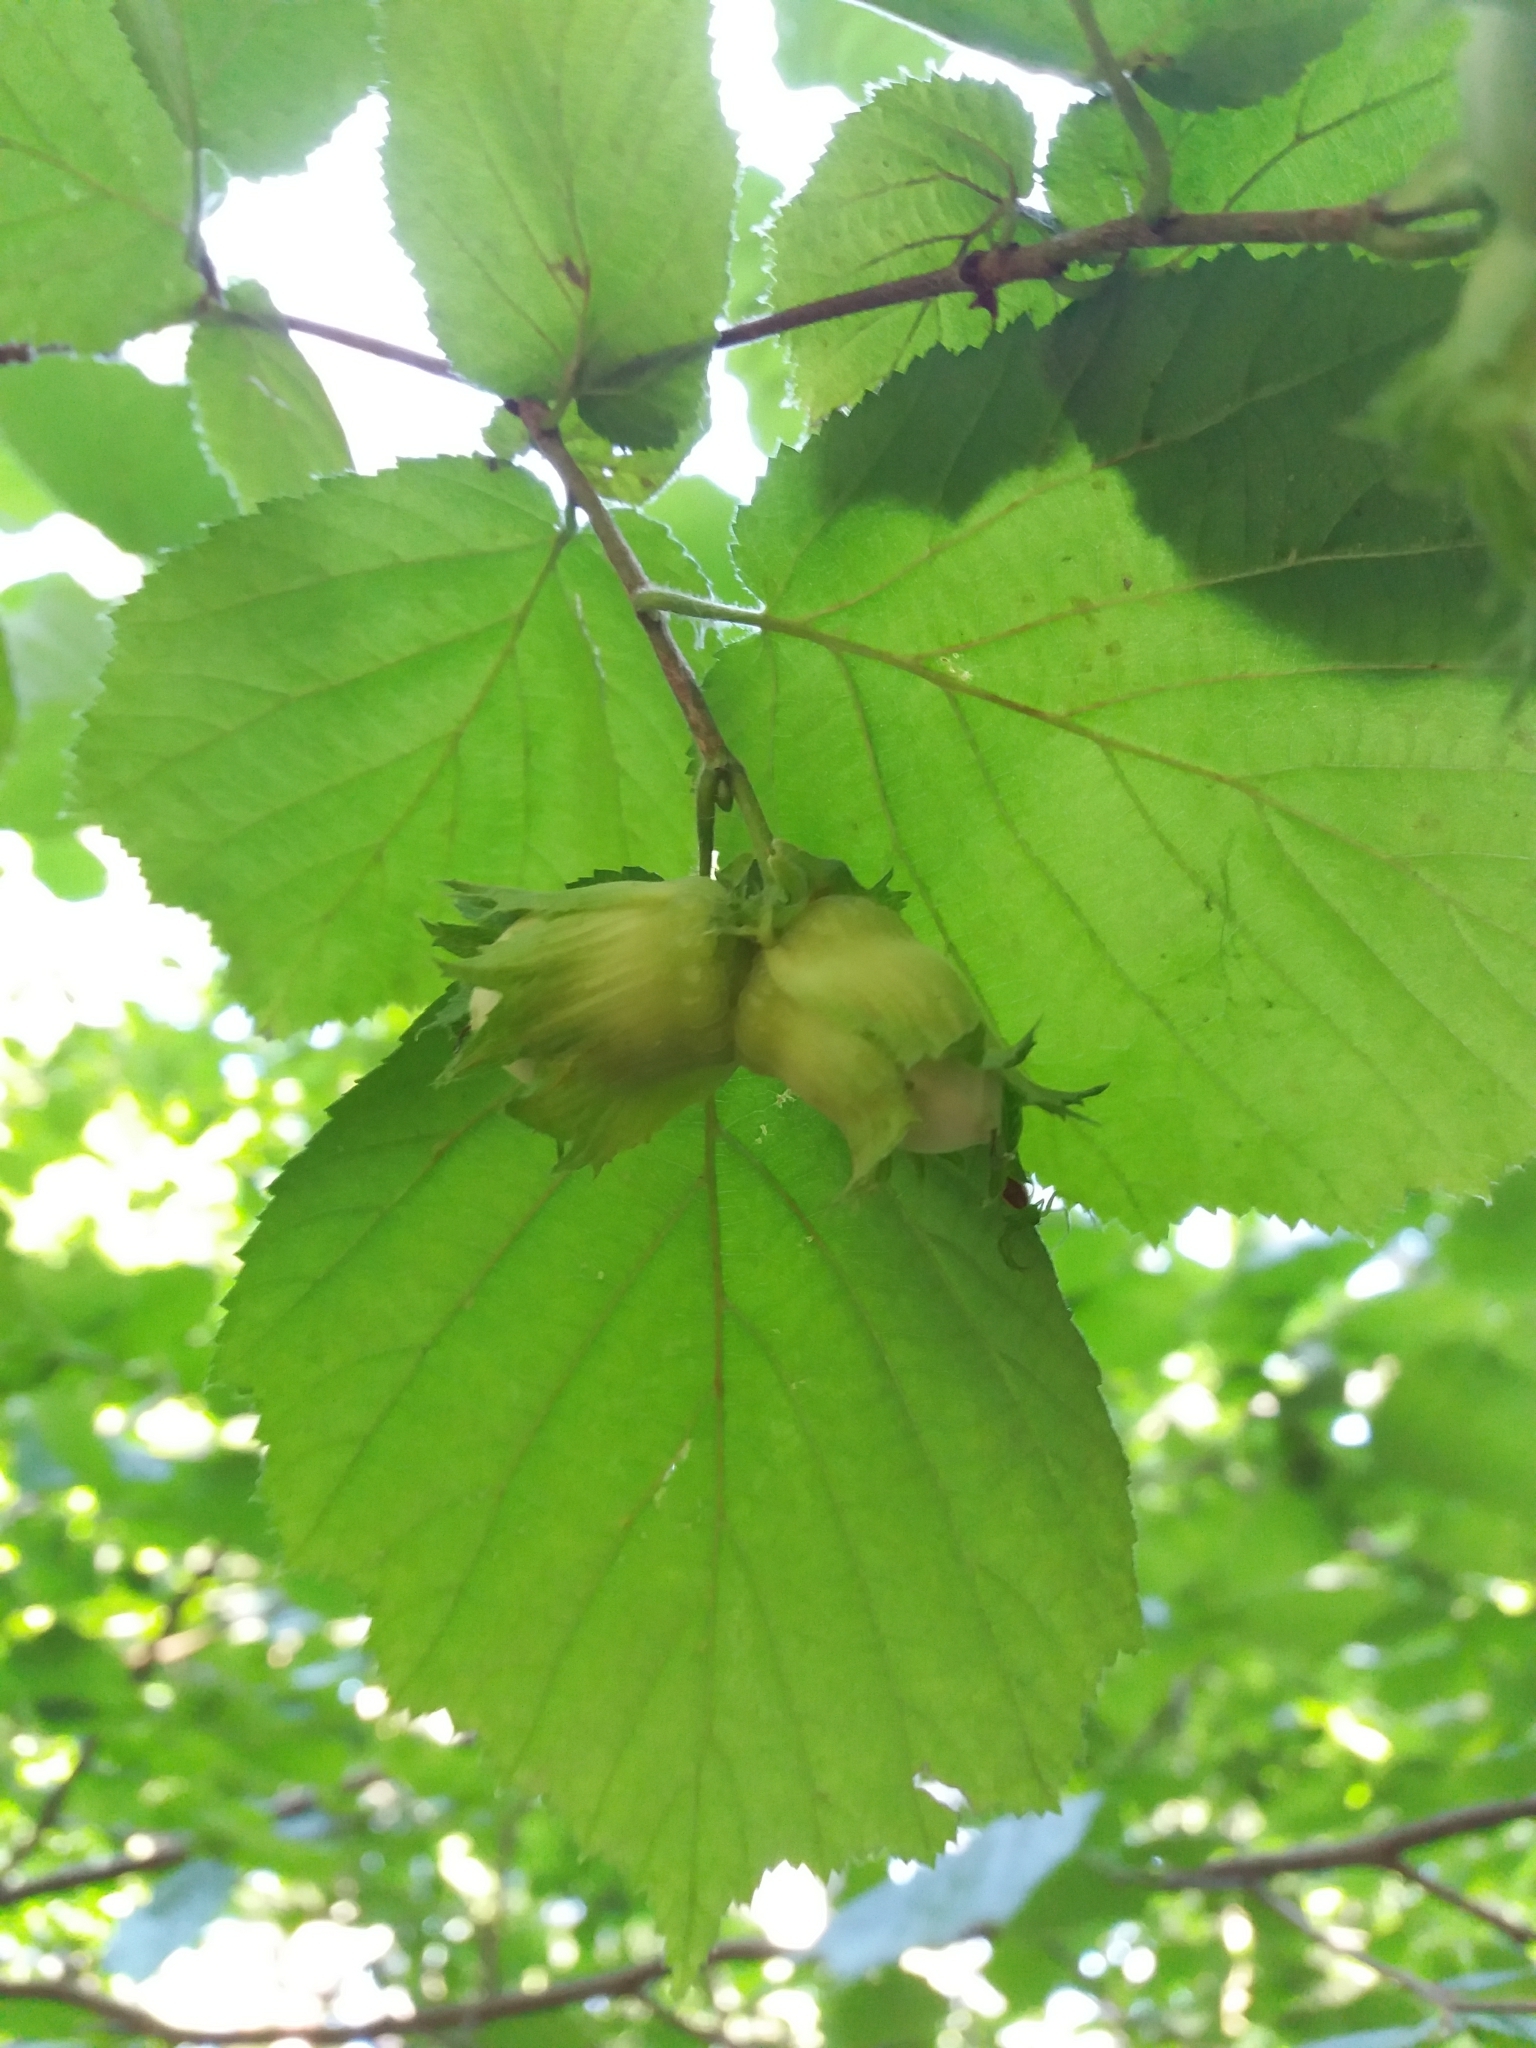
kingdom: Plantae
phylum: Tracheophyta
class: Magnoliopsida
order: Fagales
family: Betulaceae
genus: Corylus
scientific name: Corylus avellana
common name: European hazel
